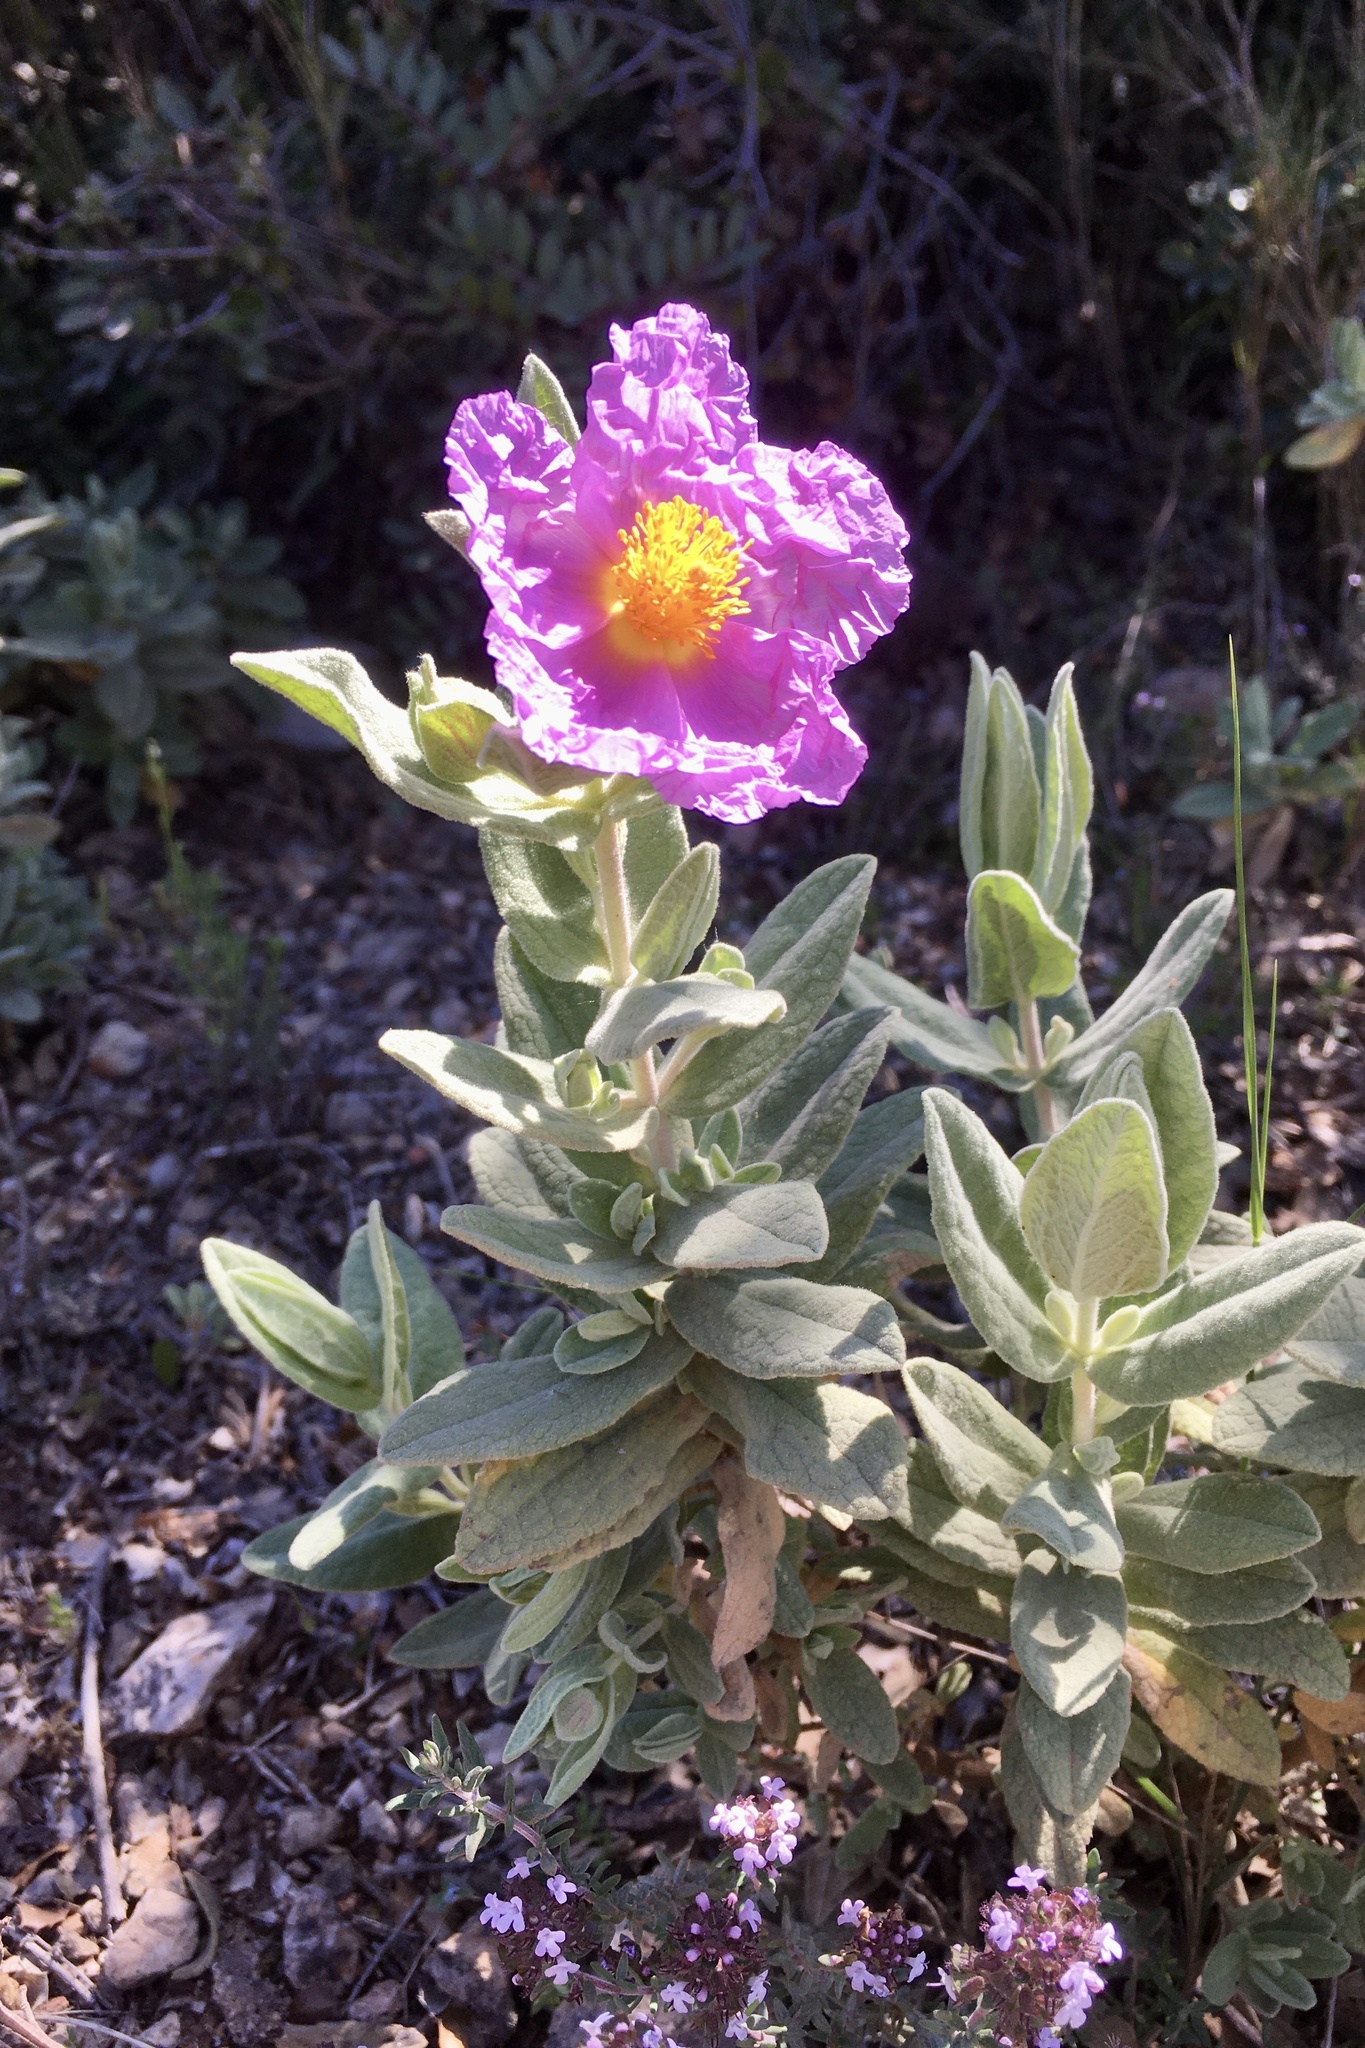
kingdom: Plantae
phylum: Tracheophyta
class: Magnoliopsida
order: Malvales
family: Cistaceae
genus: Cistus
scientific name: Cistus albidus
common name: White-leaf rock-rose
